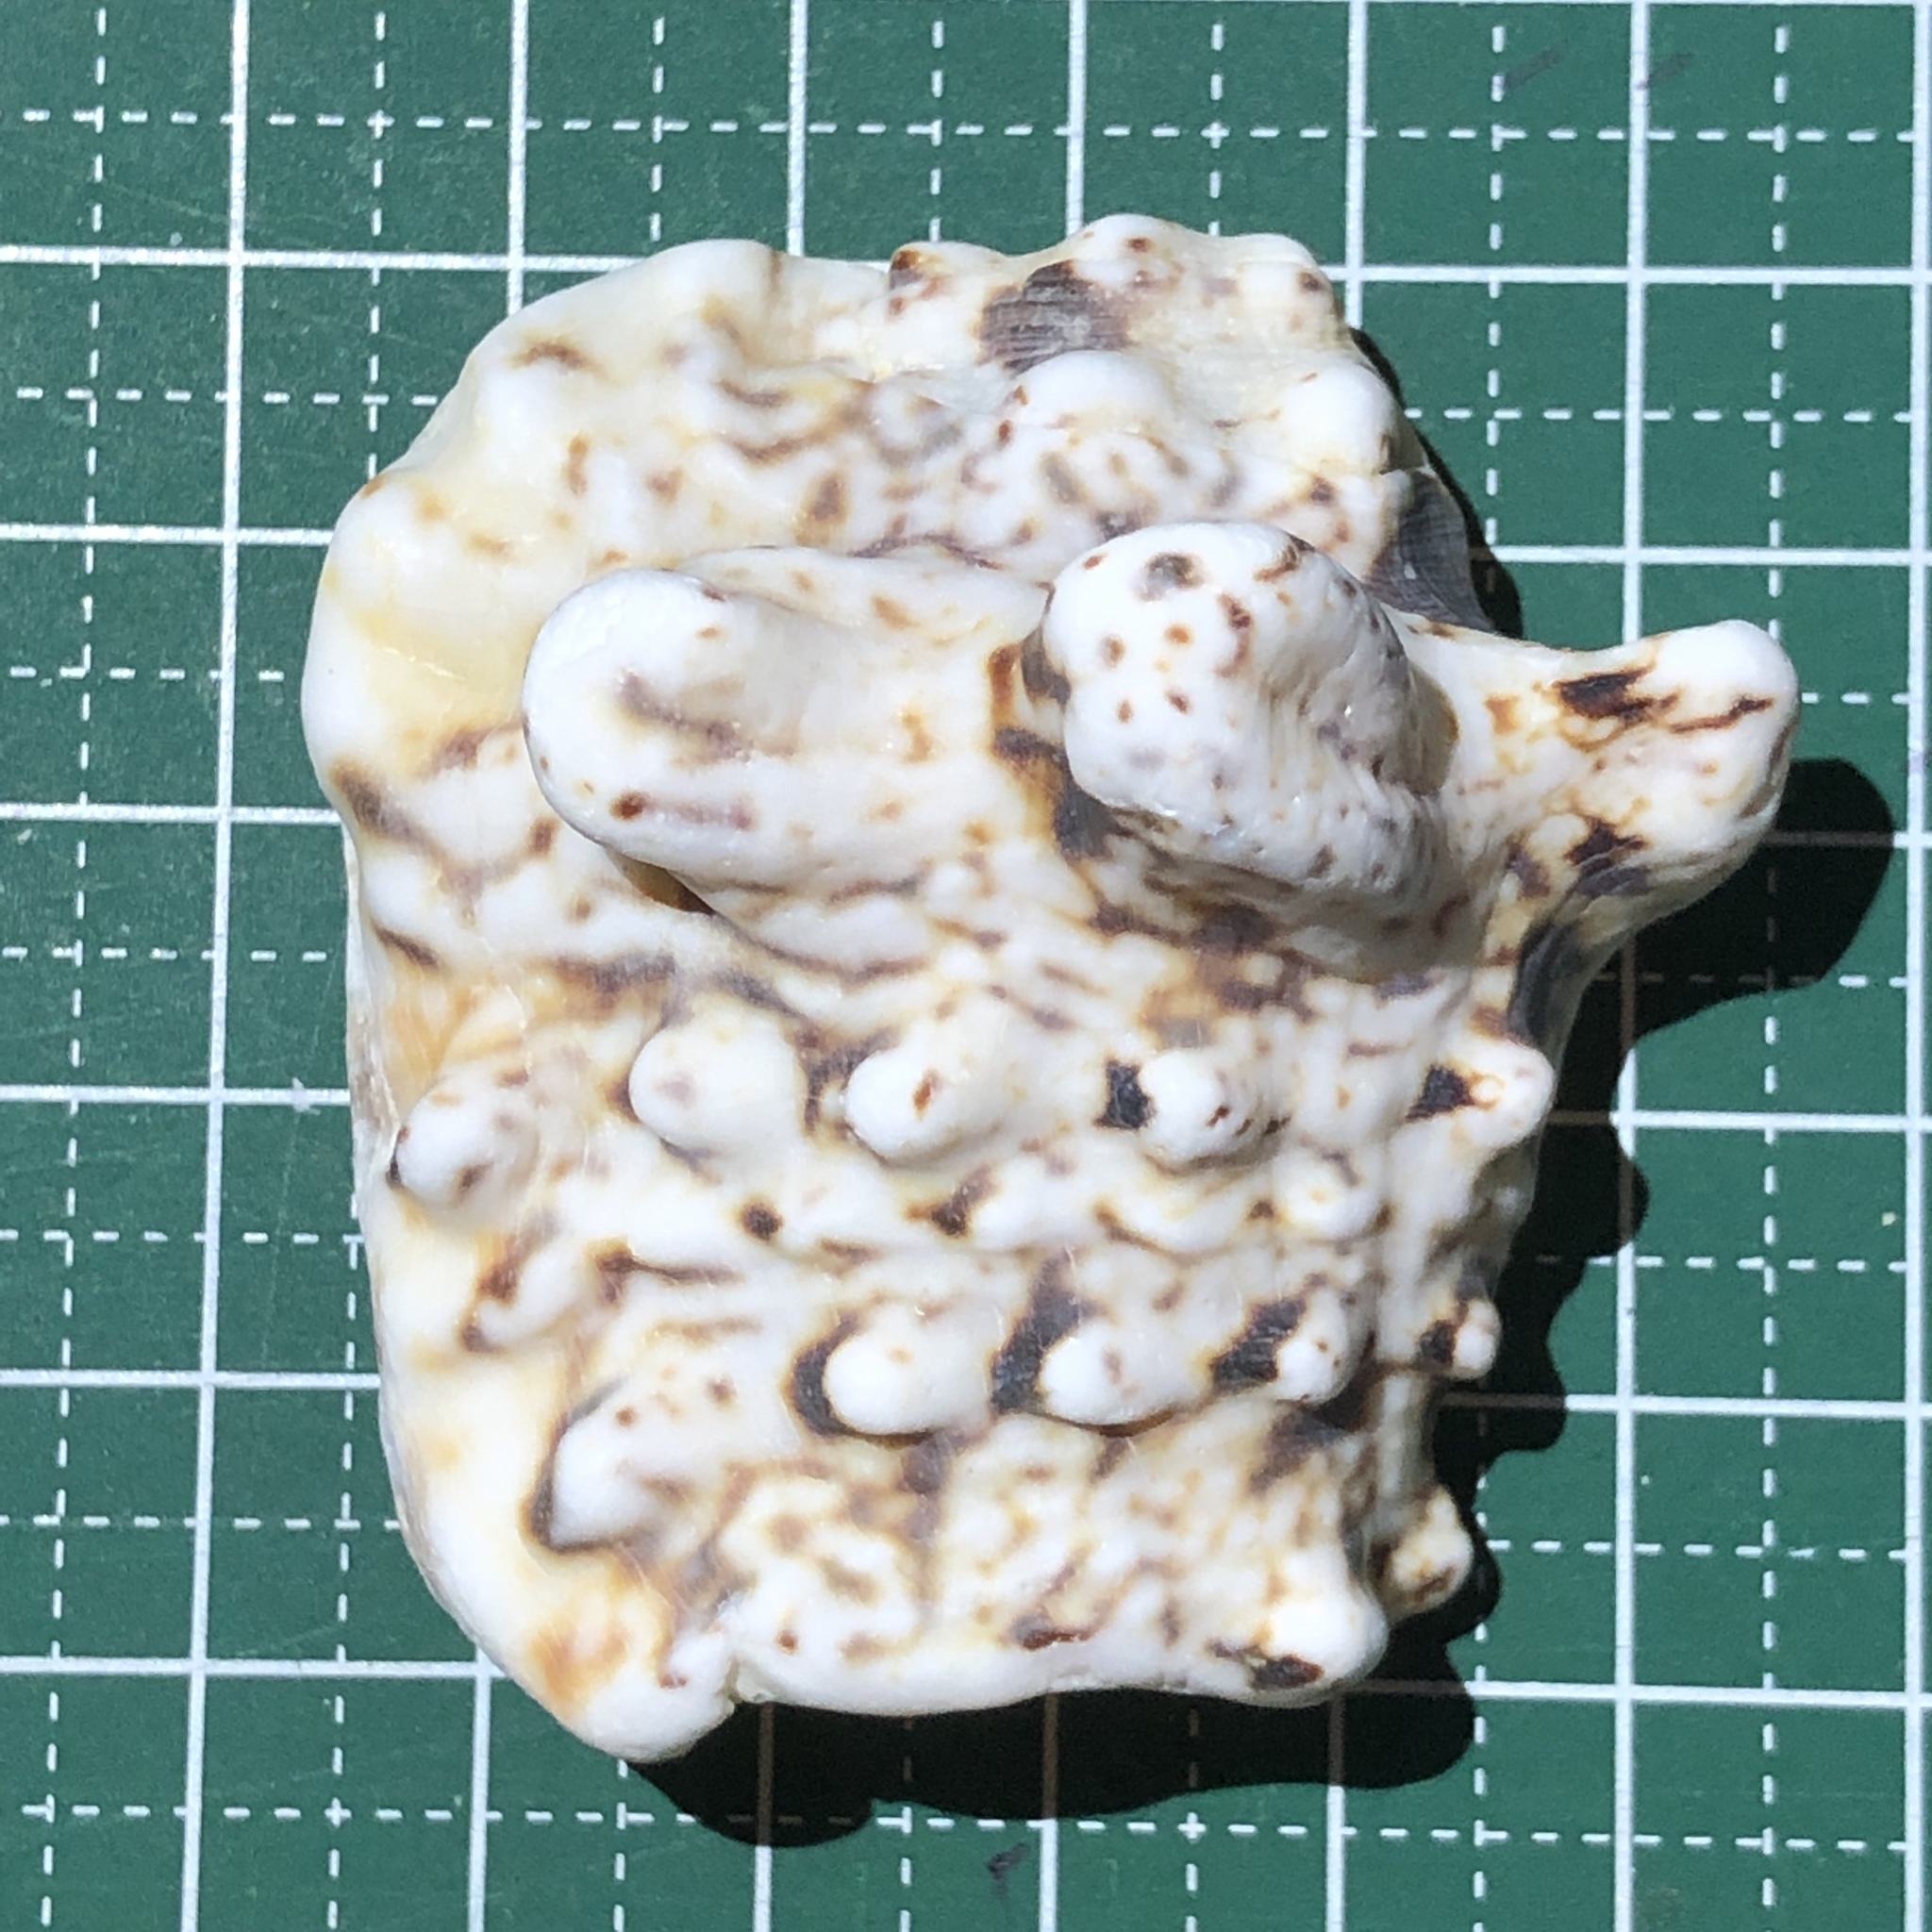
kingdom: Animalia
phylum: Mollusca
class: Gastropoda
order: Littorinimorpha
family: Strombidae
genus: Lentigo
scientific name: Lentigo lentiginosus
